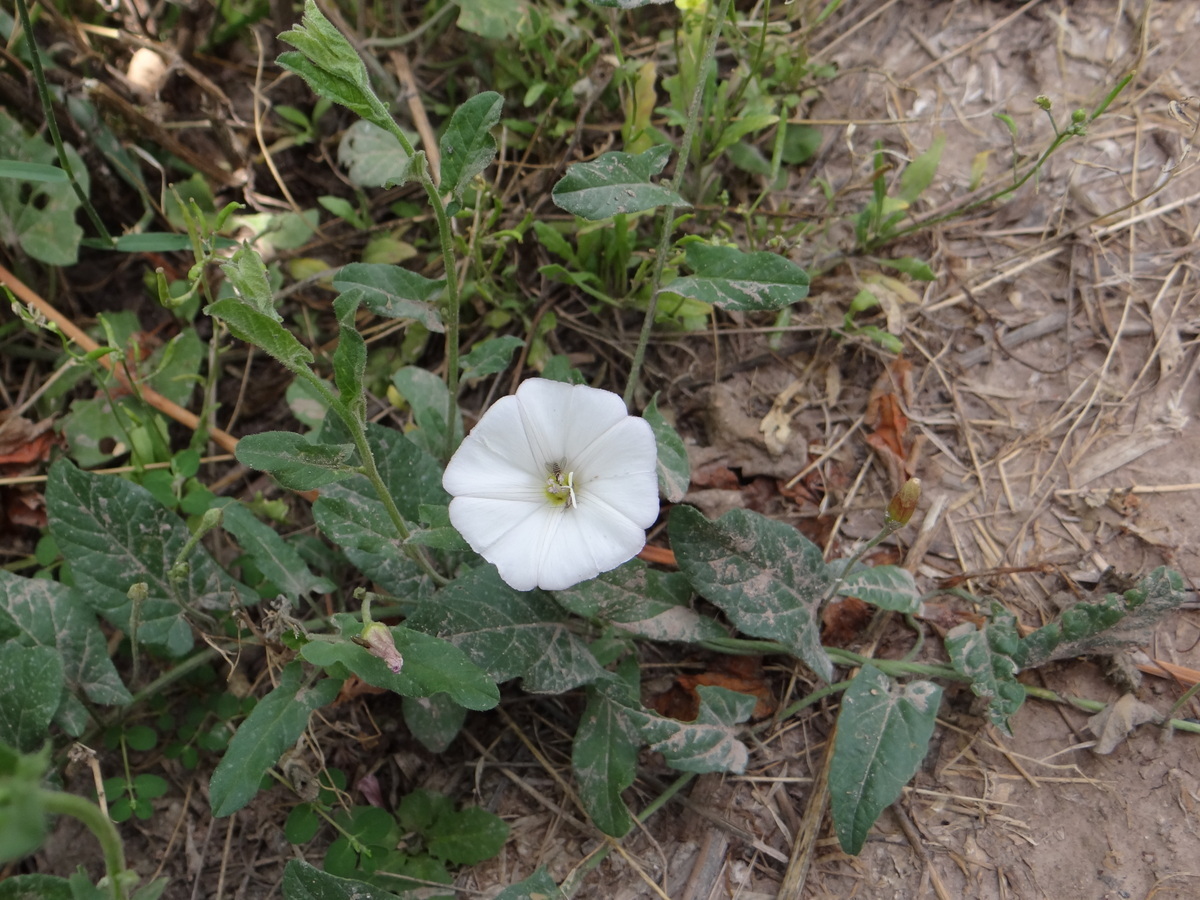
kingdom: Plantae
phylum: Tracheophyta
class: Magnoliopsida
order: Solanales
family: Convolvulaceae
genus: Convolvulus
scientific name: Convolvulus arvensis
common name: Field bindweed
